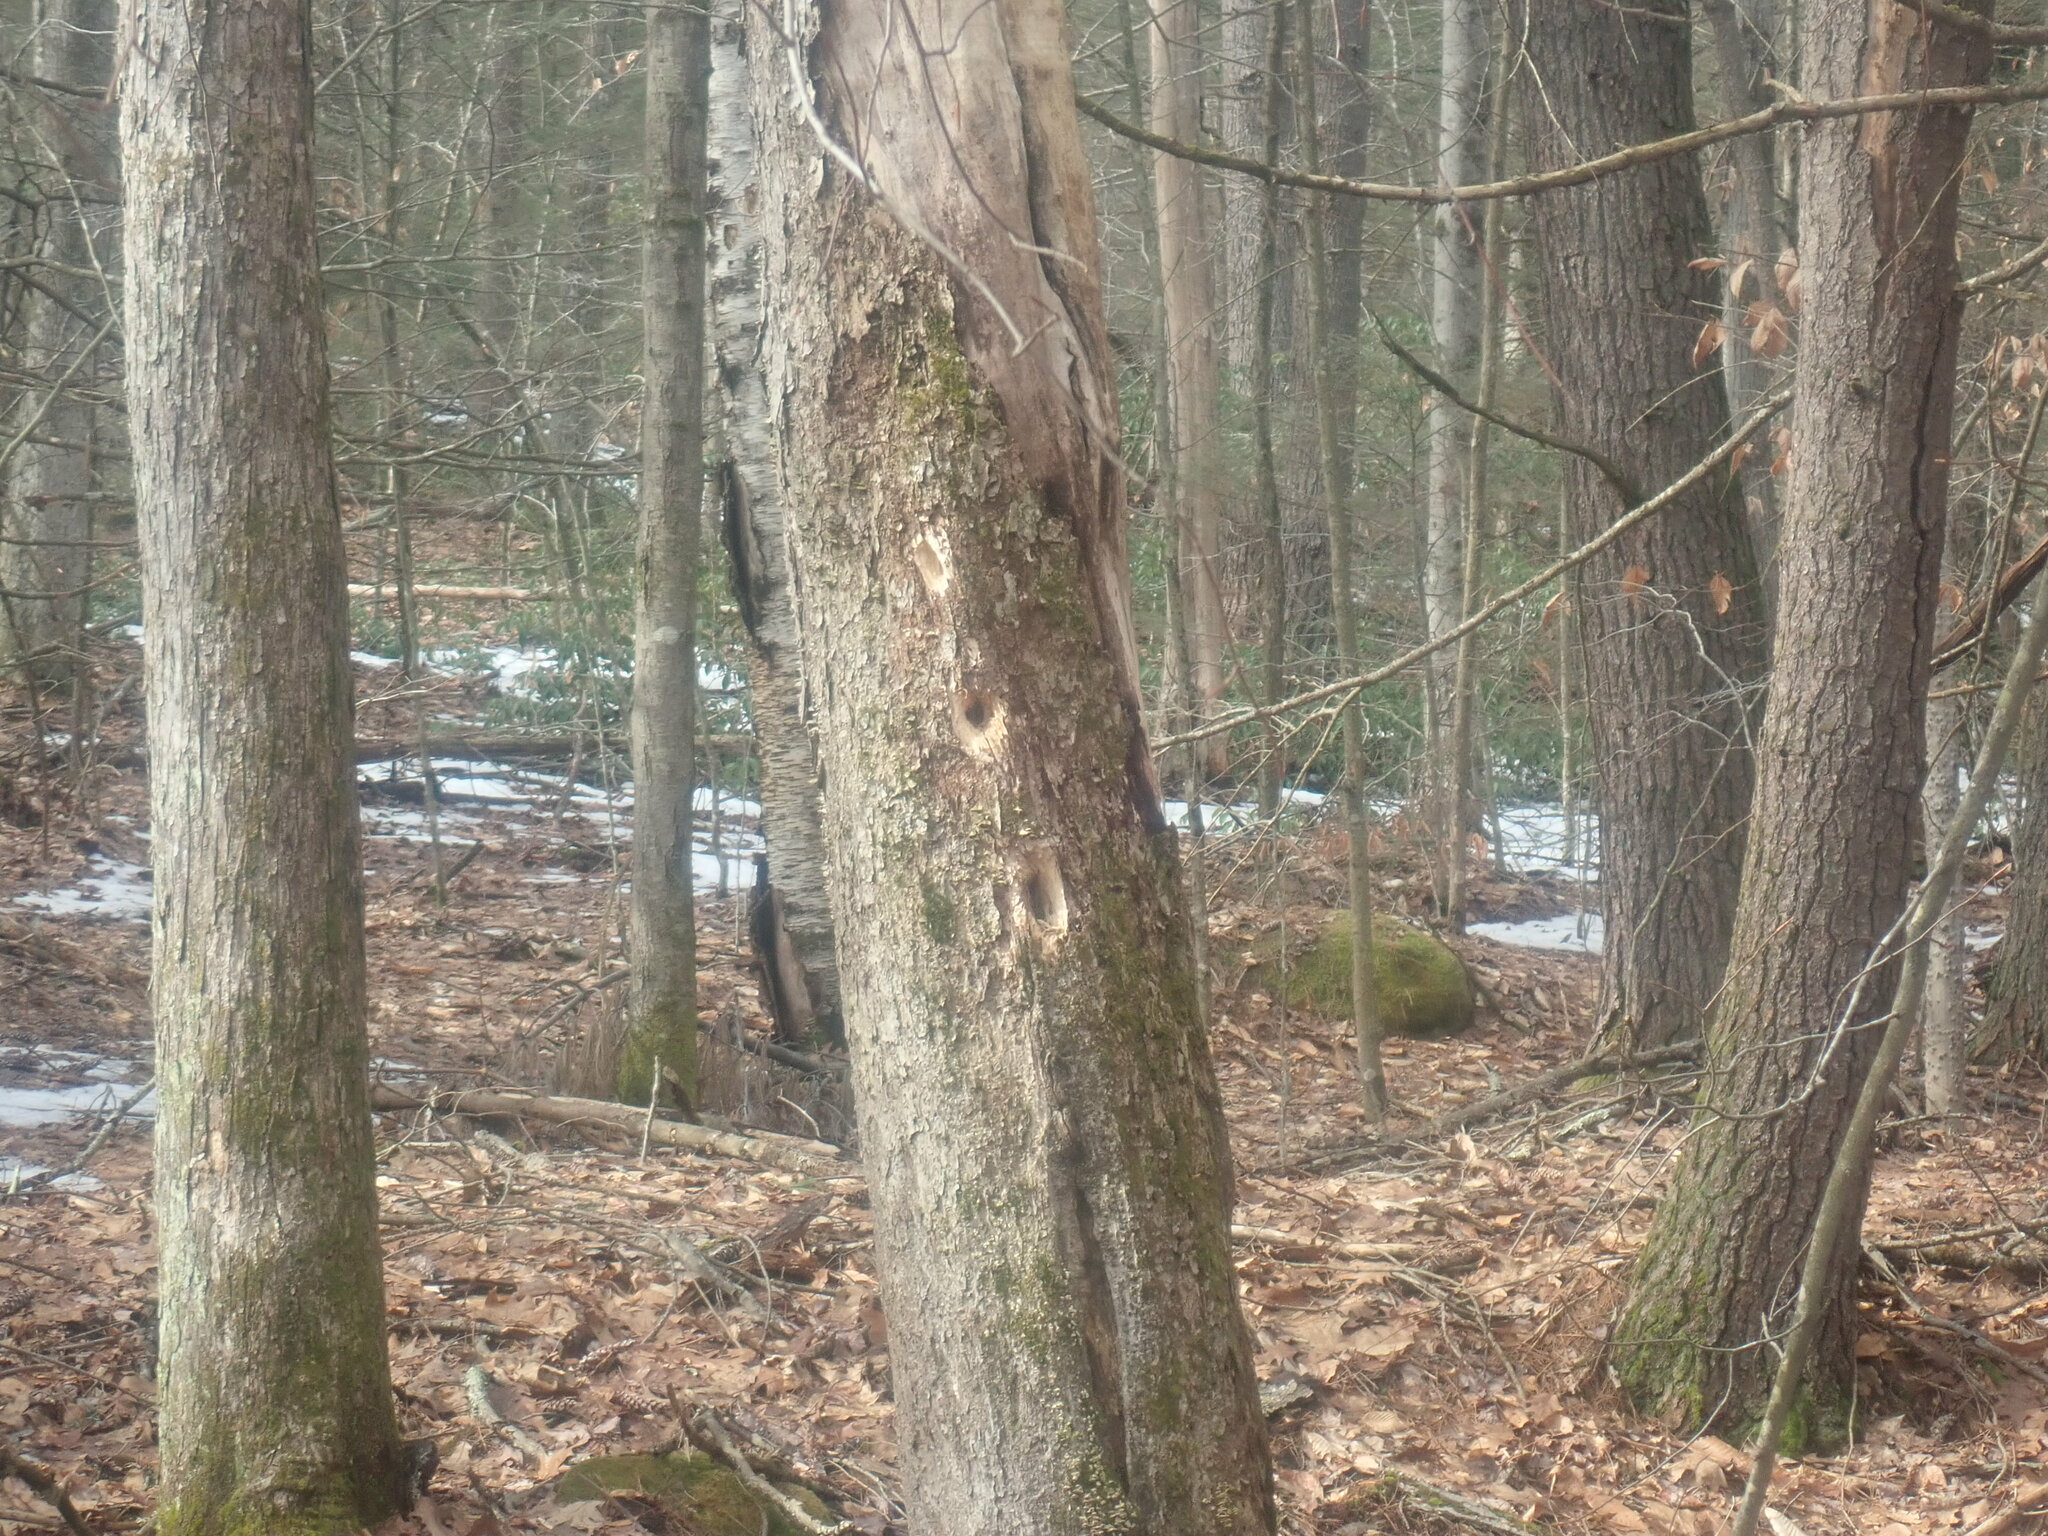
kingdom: Animalia
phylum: Chordata
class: Aves
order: Piciformes
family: Picidae
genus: Dryocopus
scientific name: Dryocopus pileatus
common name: Pileated woodpecker
